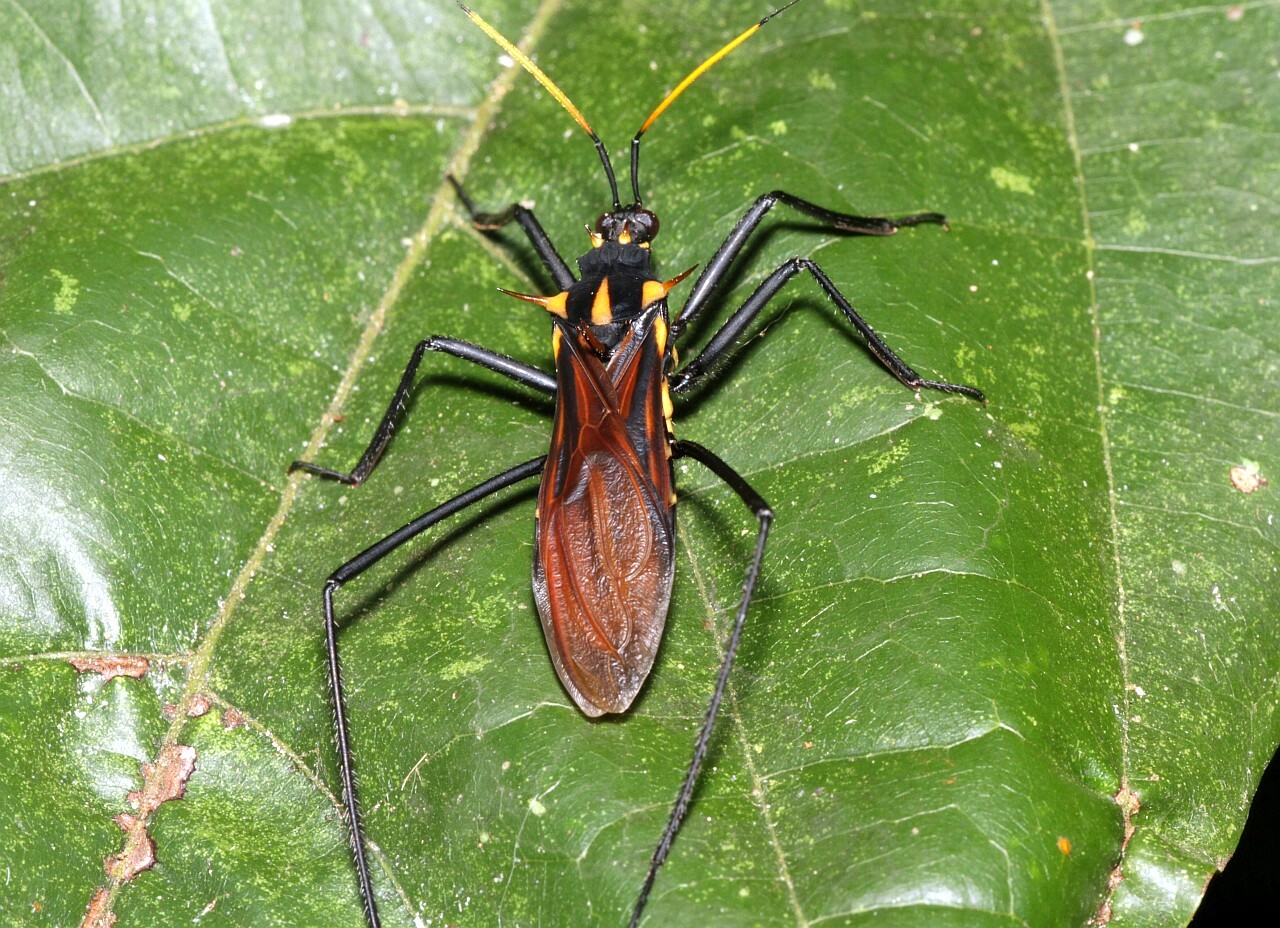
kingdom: Animalia
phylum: Arthropoda
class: Insecta
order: Hemiptera
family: Reduviidae
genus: Zelurus
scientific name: Zelurus festivus
